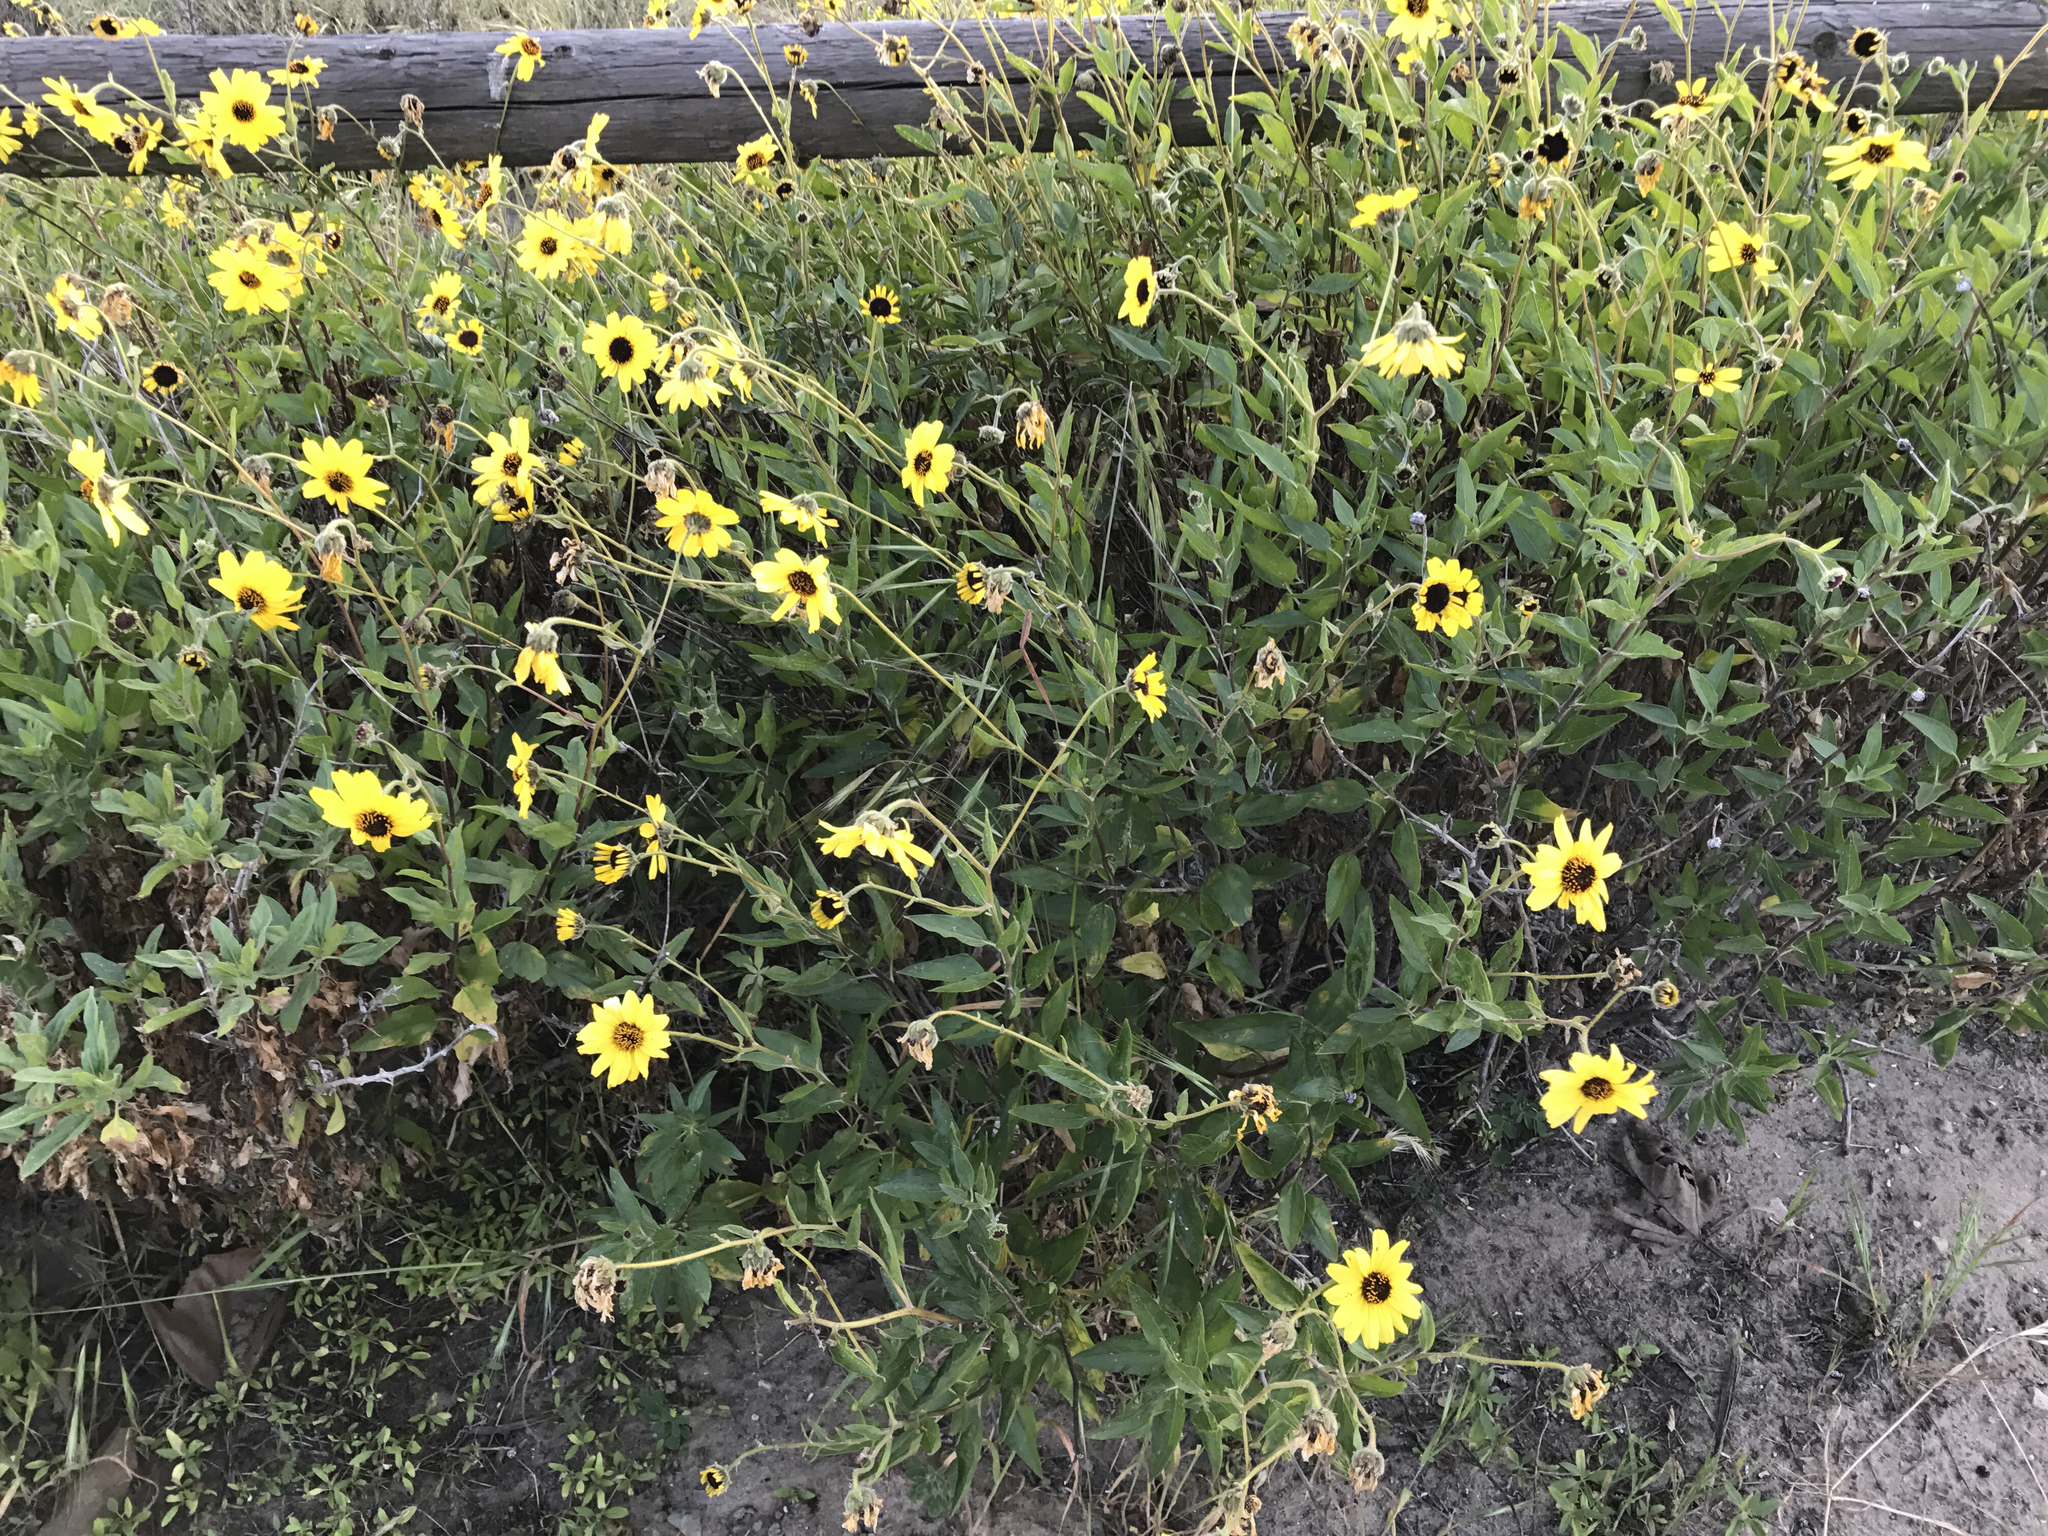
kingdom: Plantae
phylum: Tracheophyta
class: Magnoliopsida
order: Asterales
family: Asteraceae
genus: Encelia
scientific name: Encelia californica
